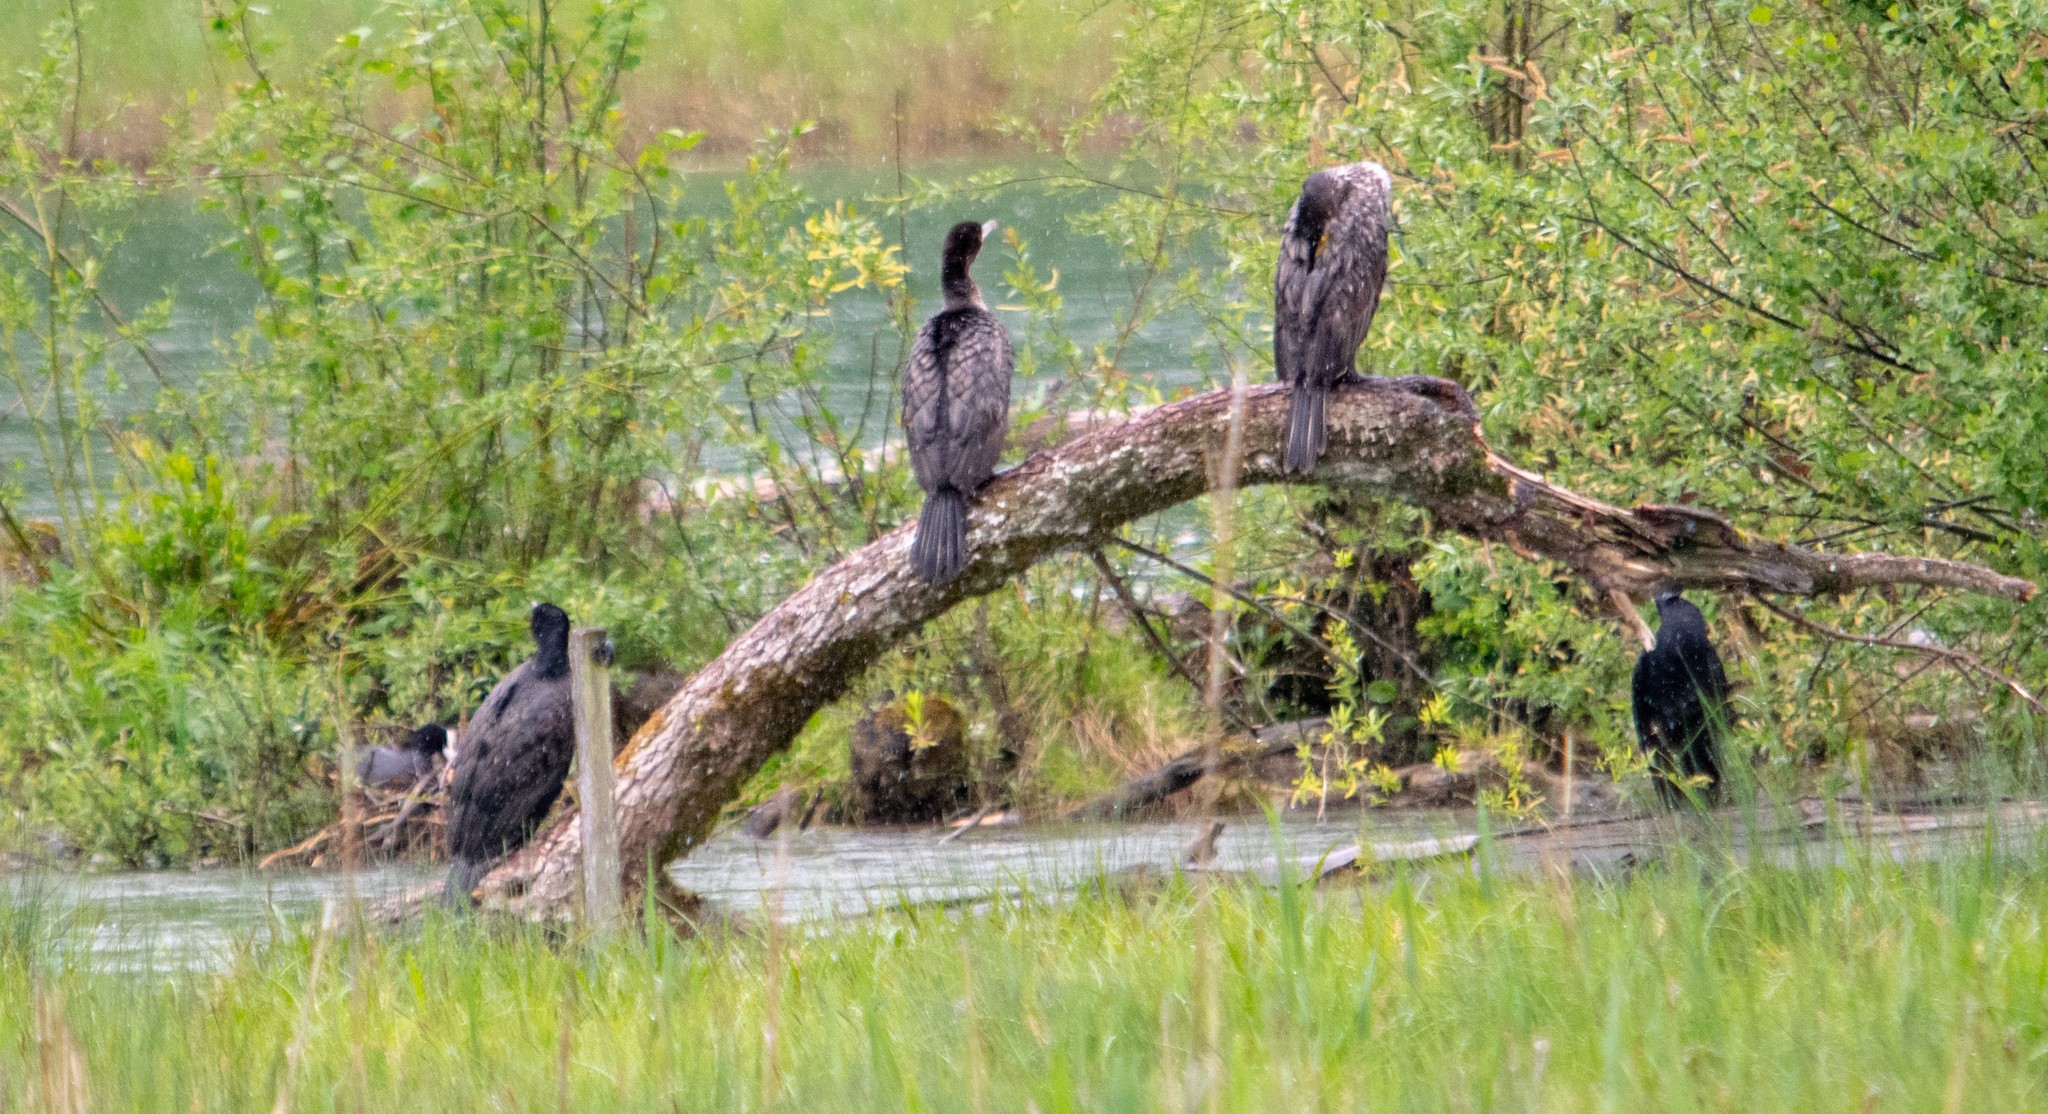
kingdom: Animalia
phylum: Chordata
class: Aves
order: Suliformes
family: Phalacrocoracidae
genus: Phalacrocorax
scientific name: Phalacrocorax carbo
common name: Great cormorant
